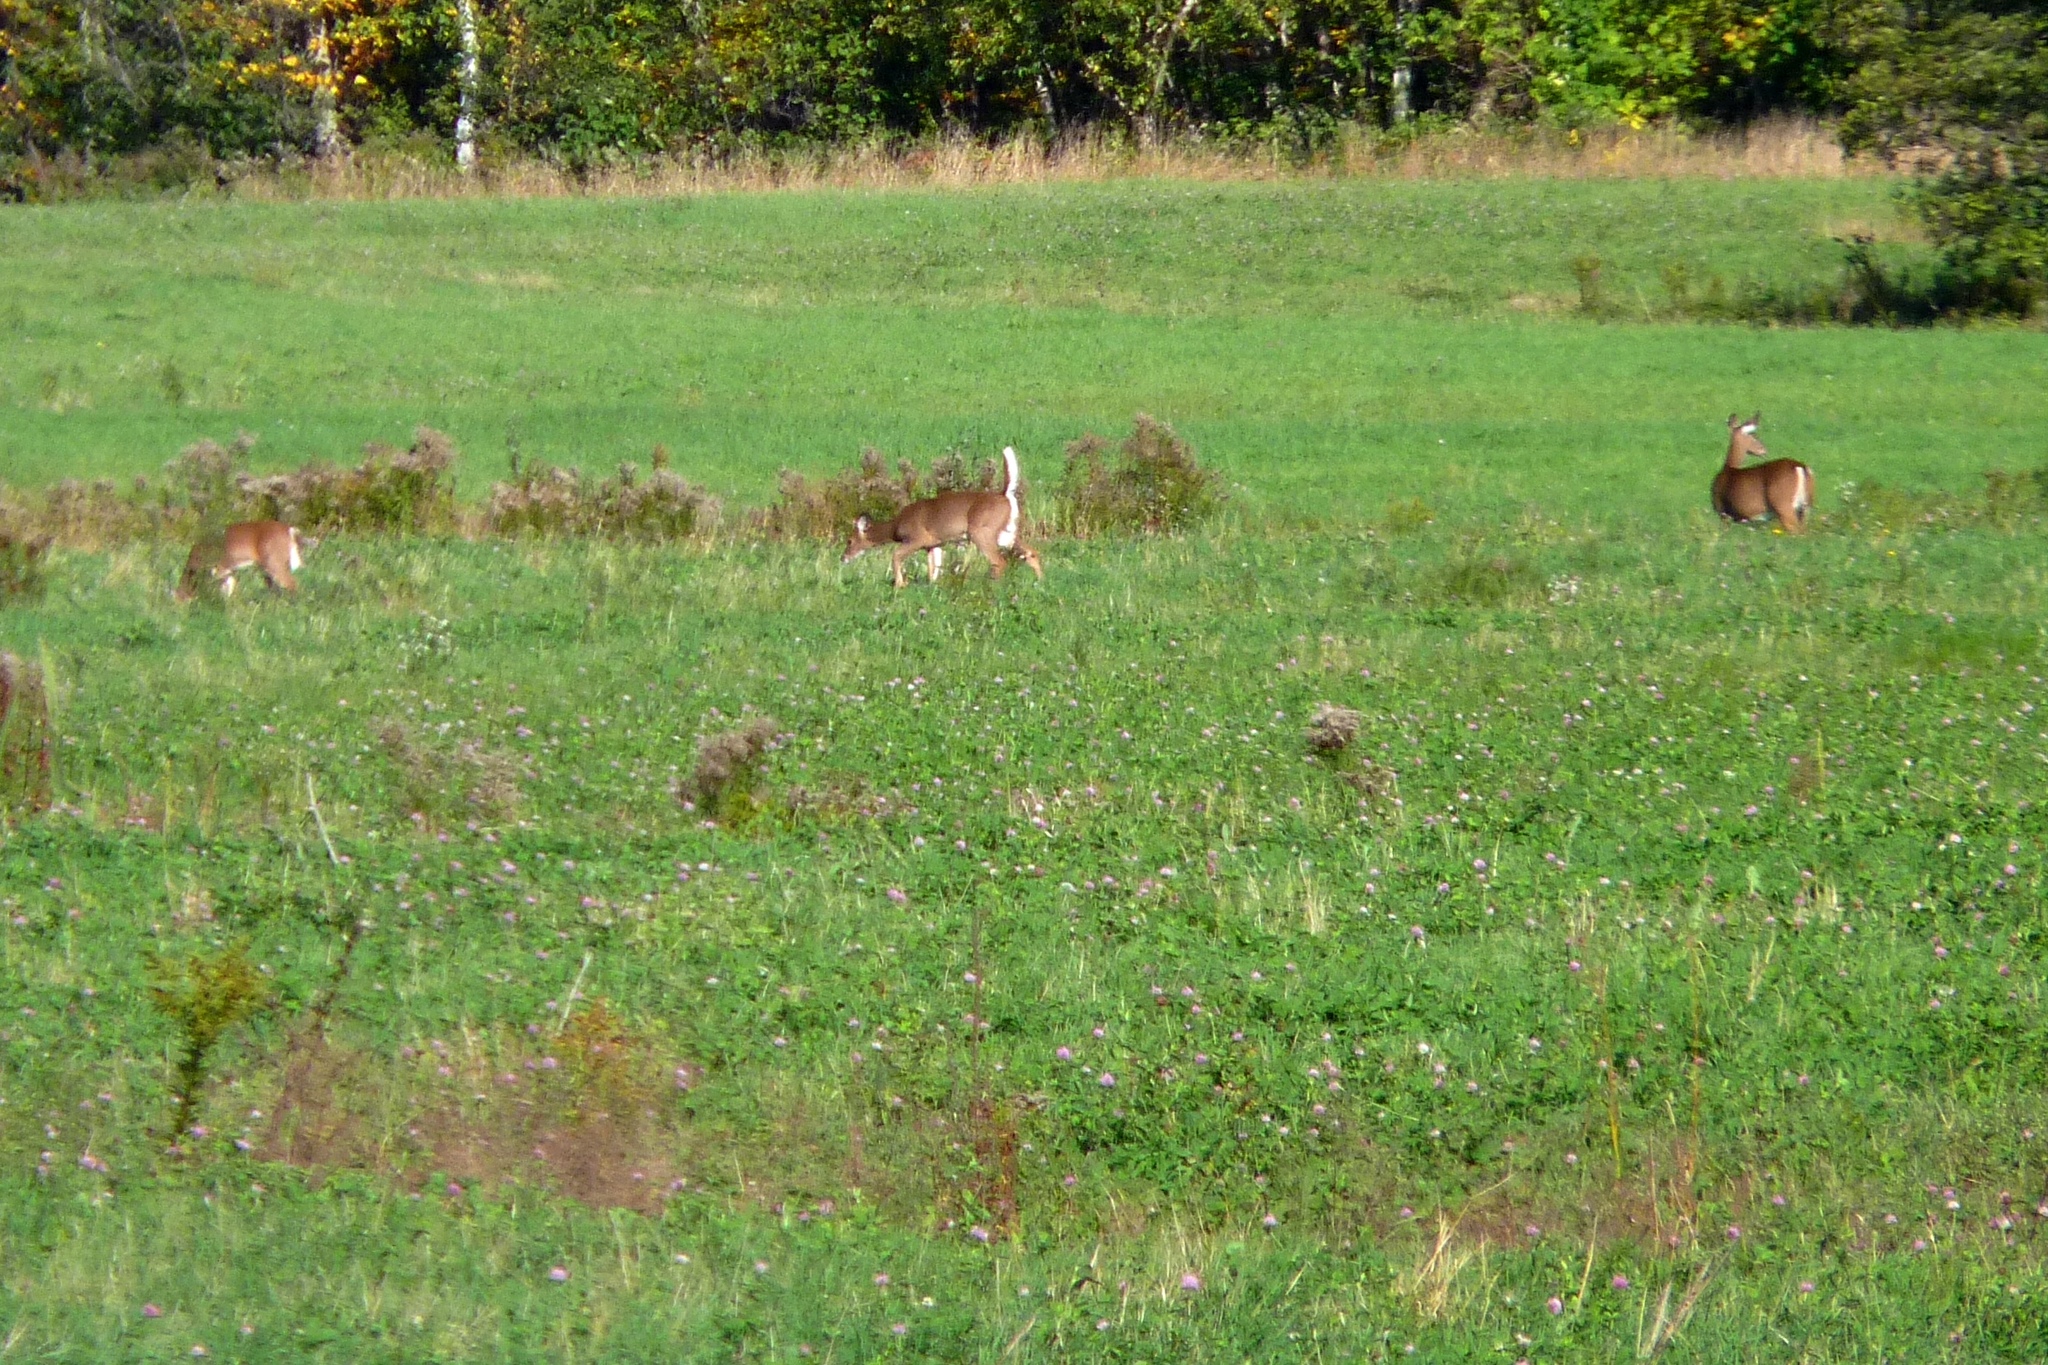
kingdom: Animalia
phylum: Chordata
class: Mammalia
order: Artiodactyla
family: Cervidae
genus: Odocoileus
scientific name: Odocoileus virginianus
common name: White-tailed deer
